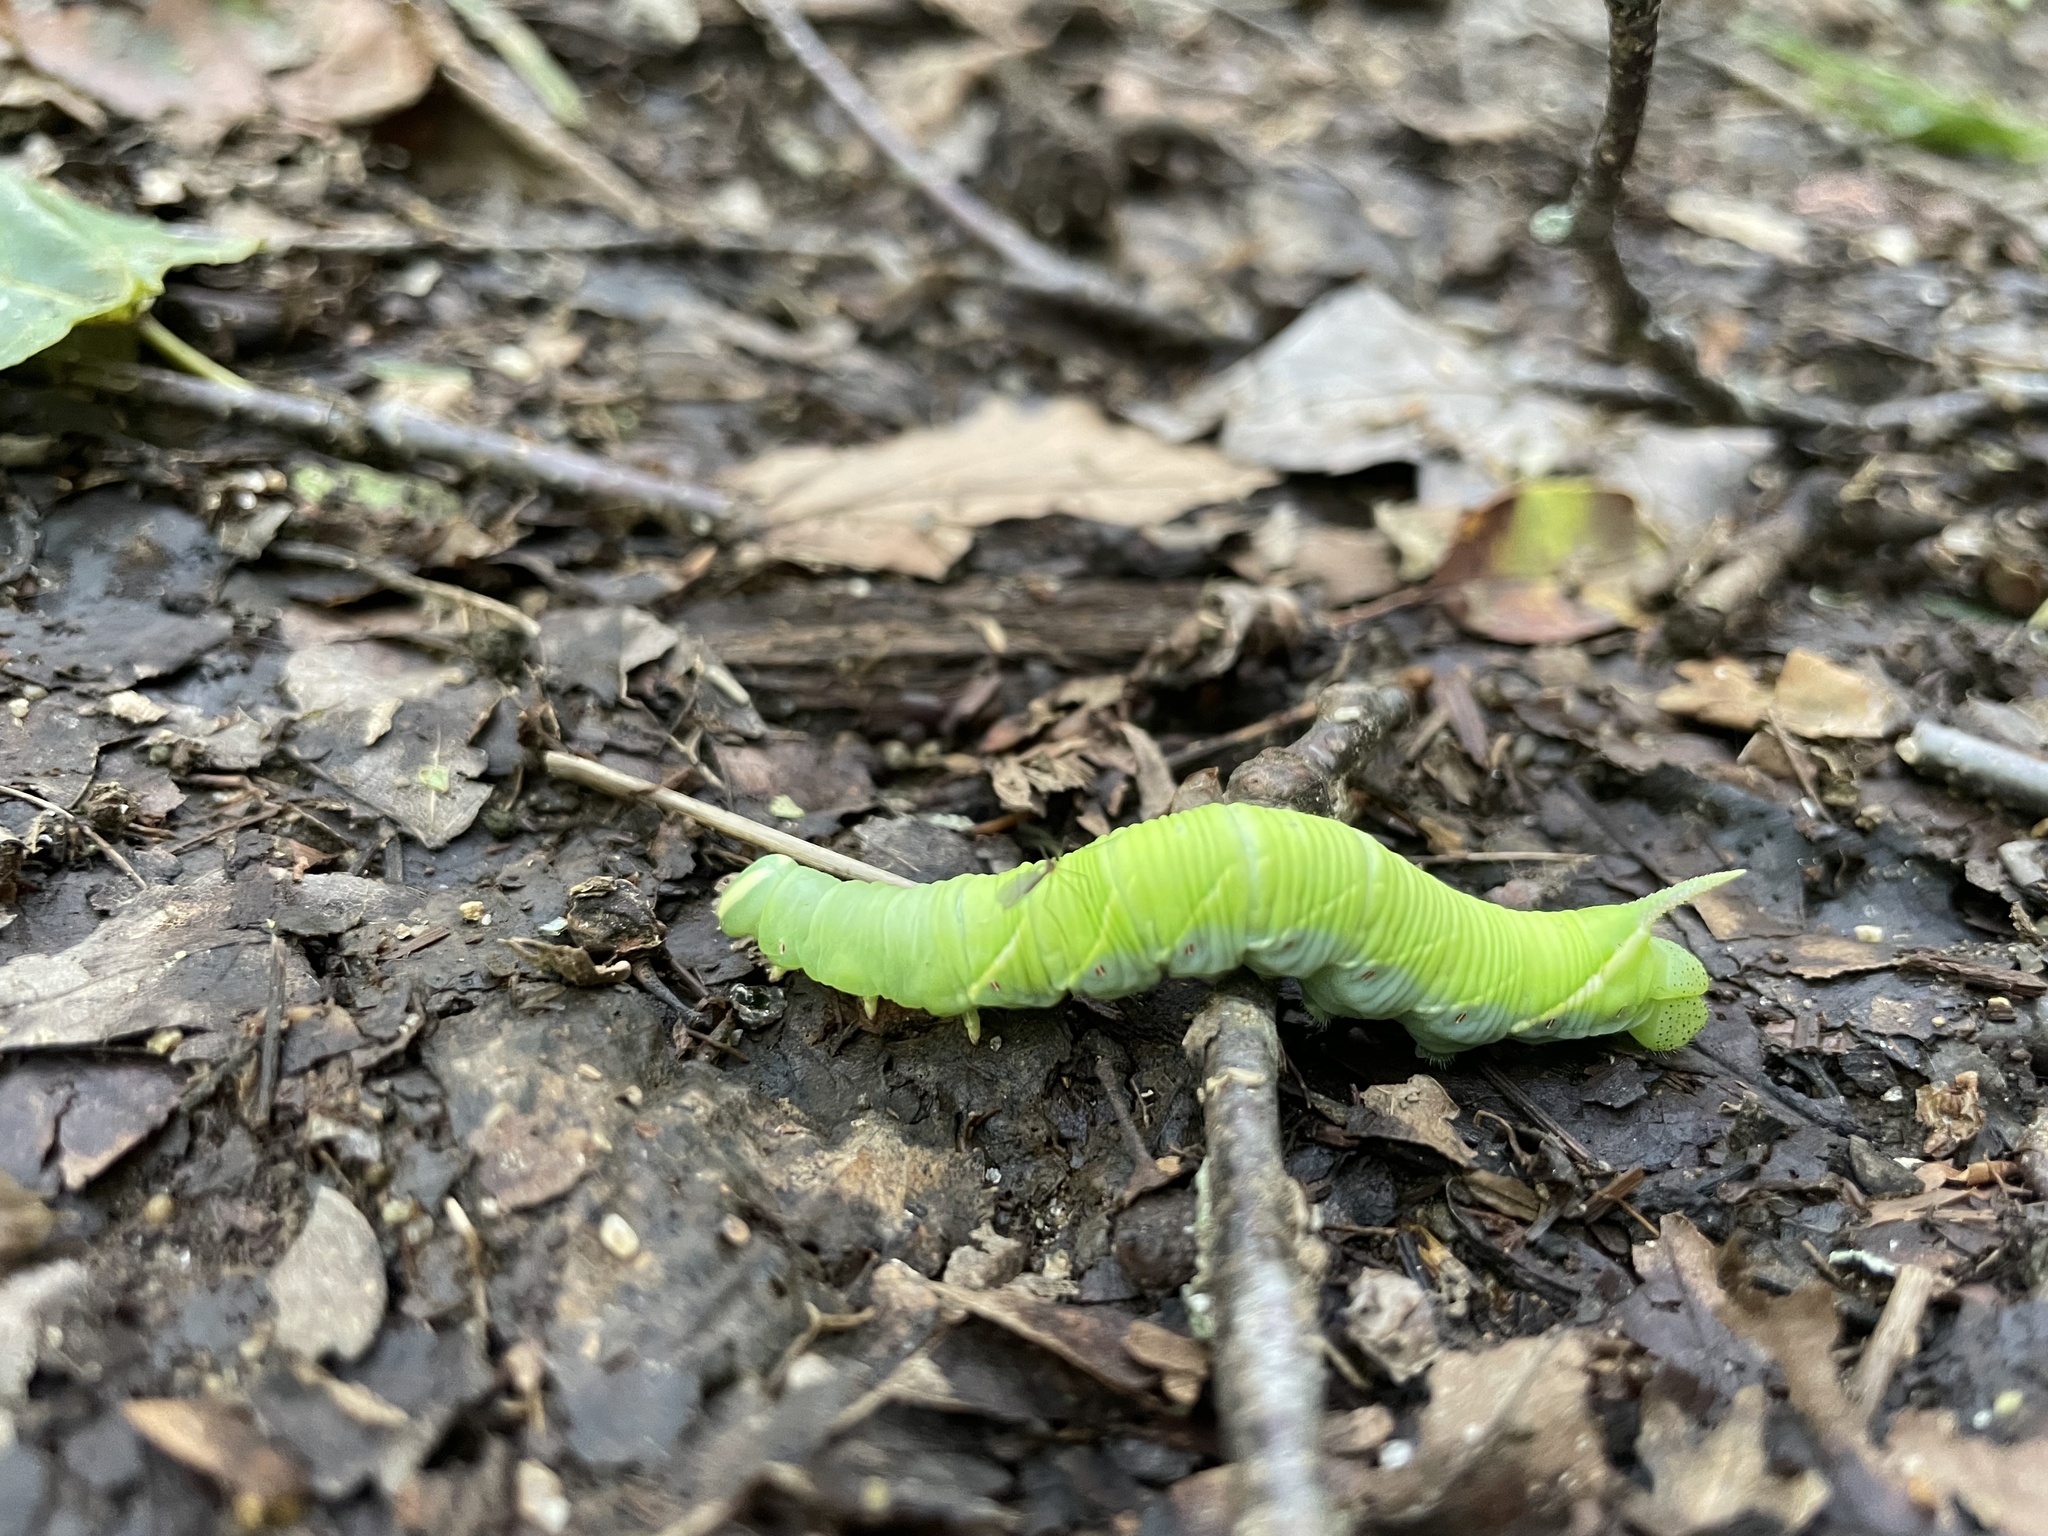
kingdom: Animalia
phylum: Arthropoda
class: Insecta
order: Lepidoptera
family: Sphingidae
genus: Ceratomia
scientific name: Ceratomia undulosa
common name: Waved sphinx
